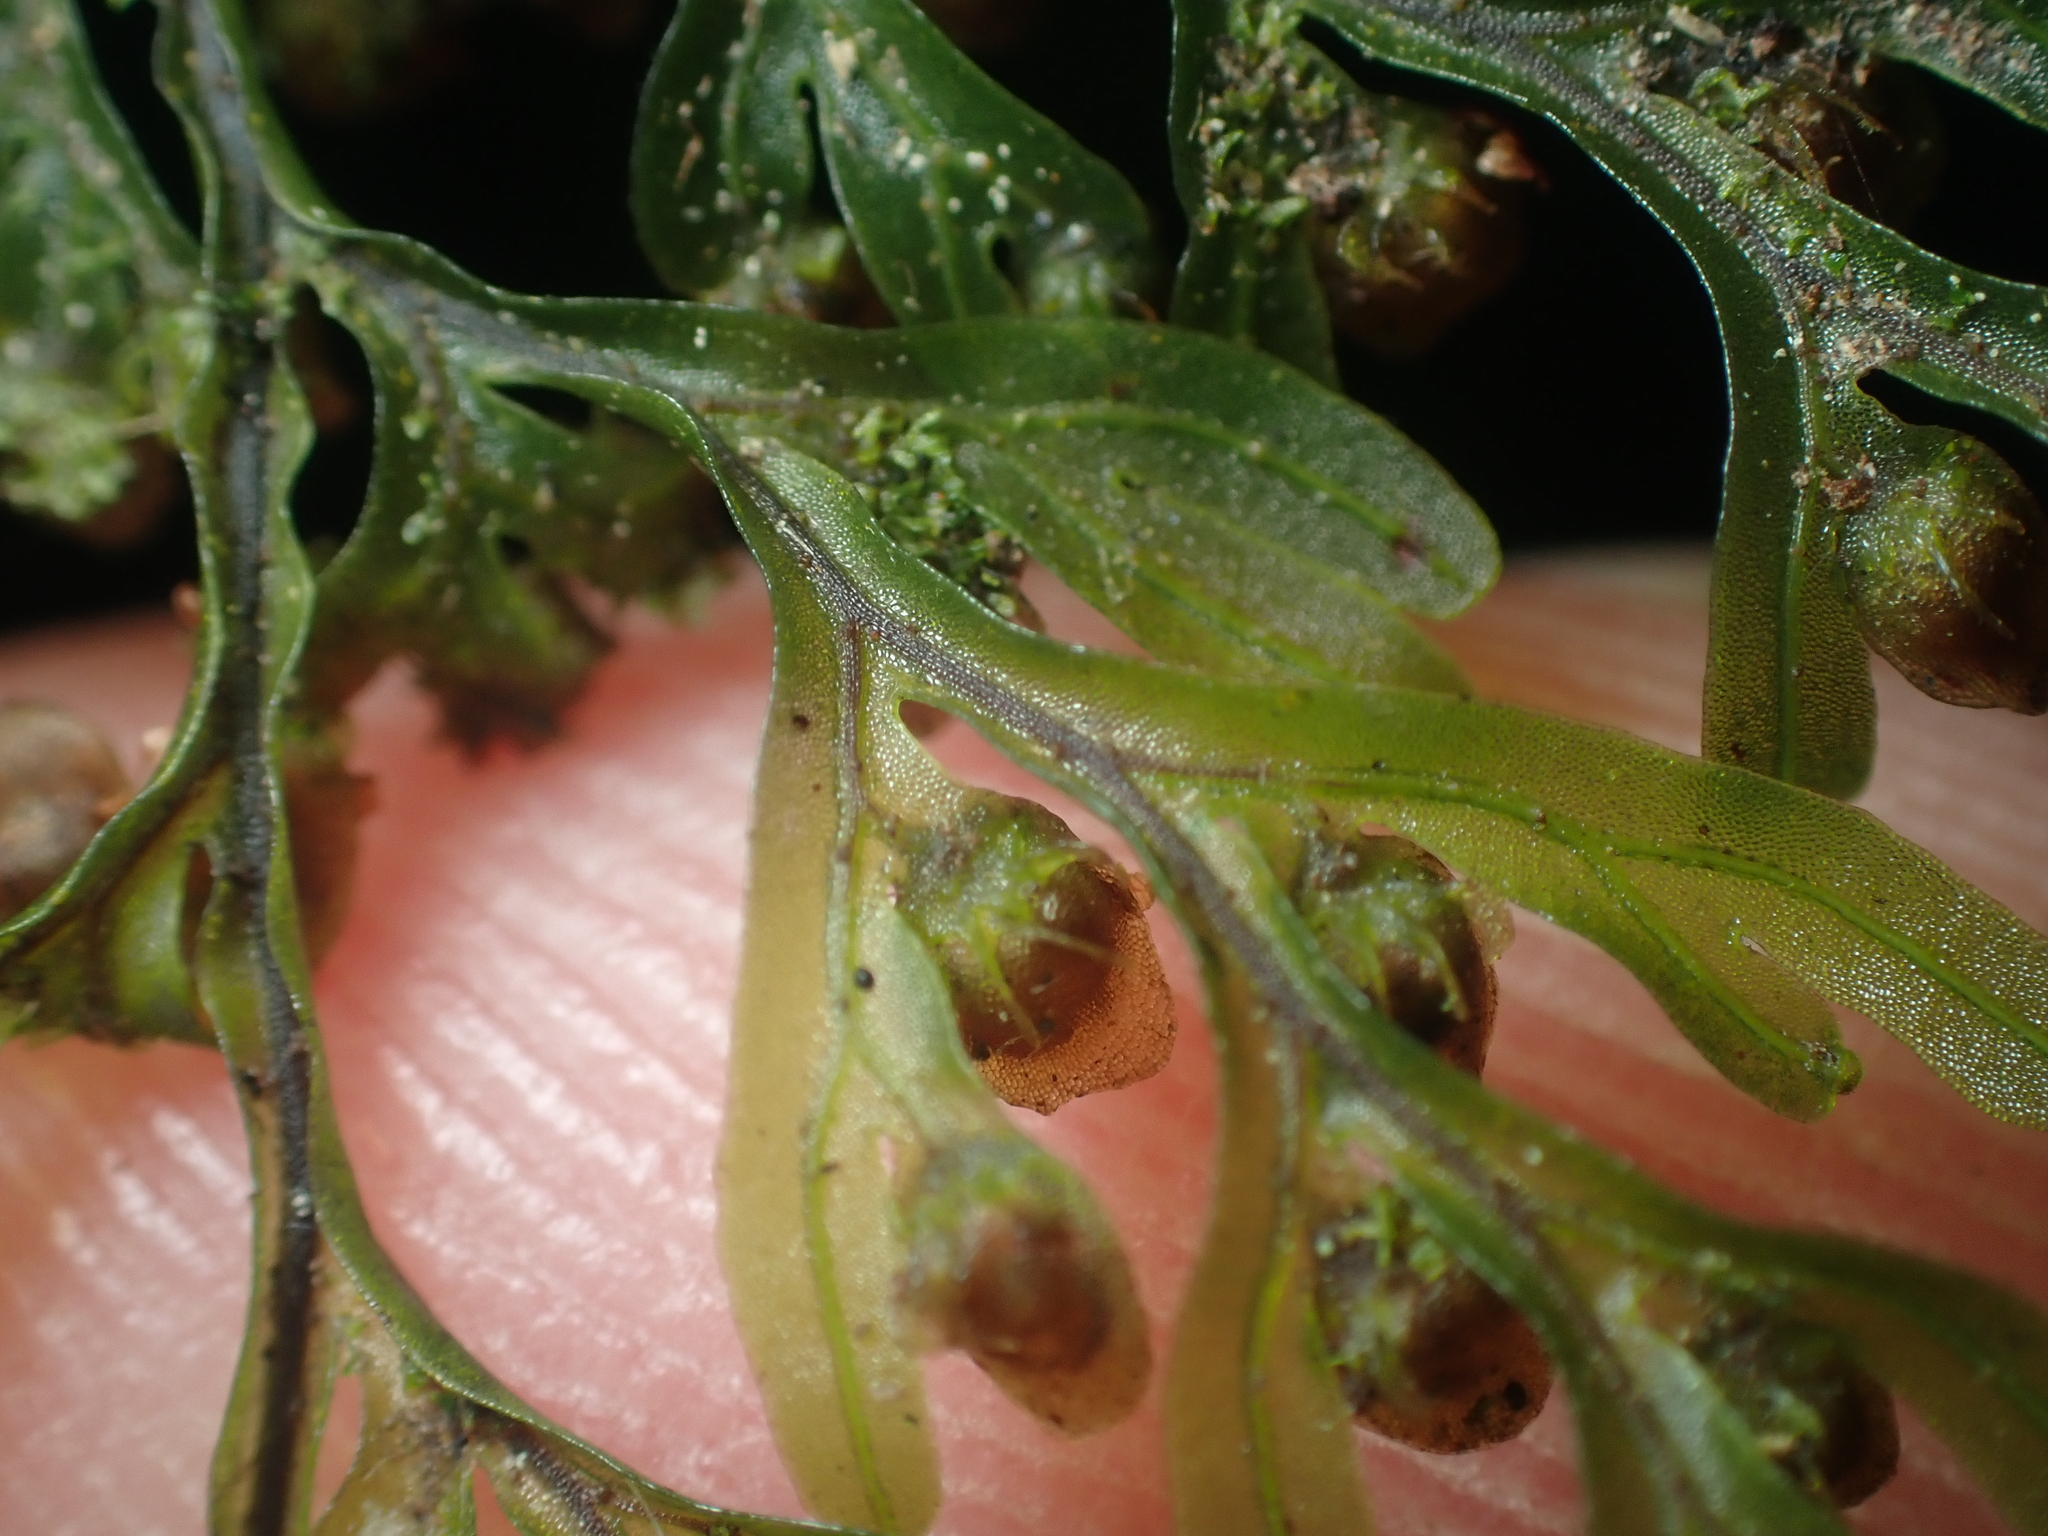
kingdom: Plantae
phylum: Tracheophyta
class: Polypodiopsida
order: Hymenophyllales
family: Hymenophyllaceae
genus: Hymenophyllum
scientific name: Hymenophyllum sanguinolentum
